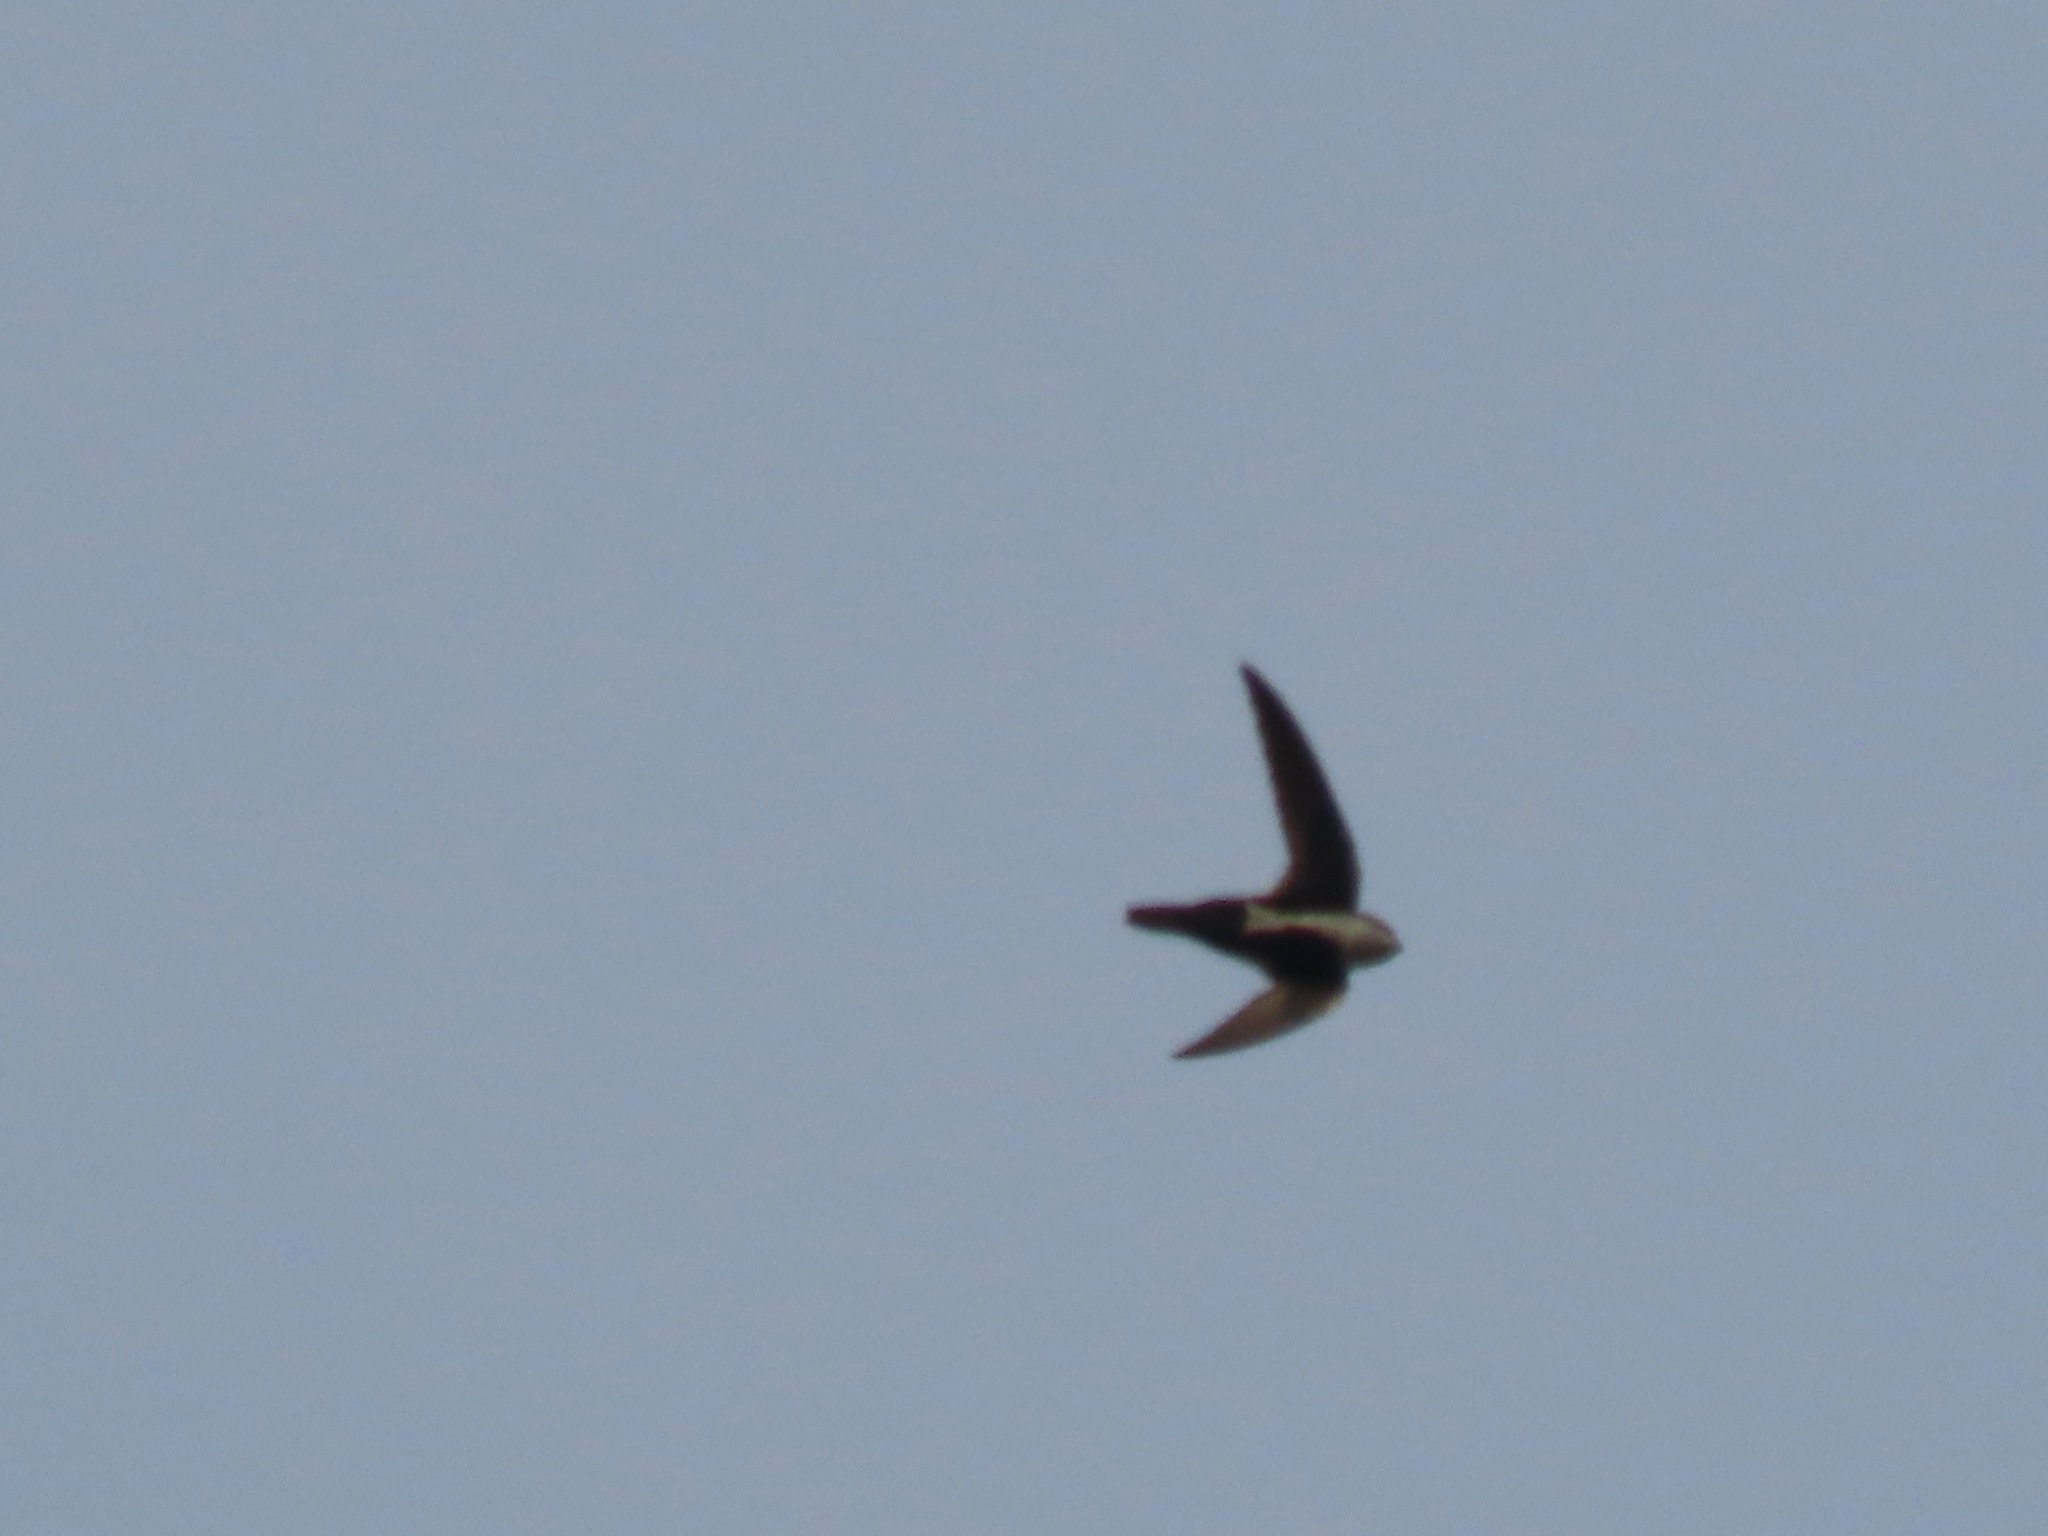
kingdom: Animalia
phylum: Chordata
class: Aves
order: Apodiformes
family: Apodidae
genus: Aeronautes
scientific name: Aeronautes saxatalis
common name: White-throated swift
